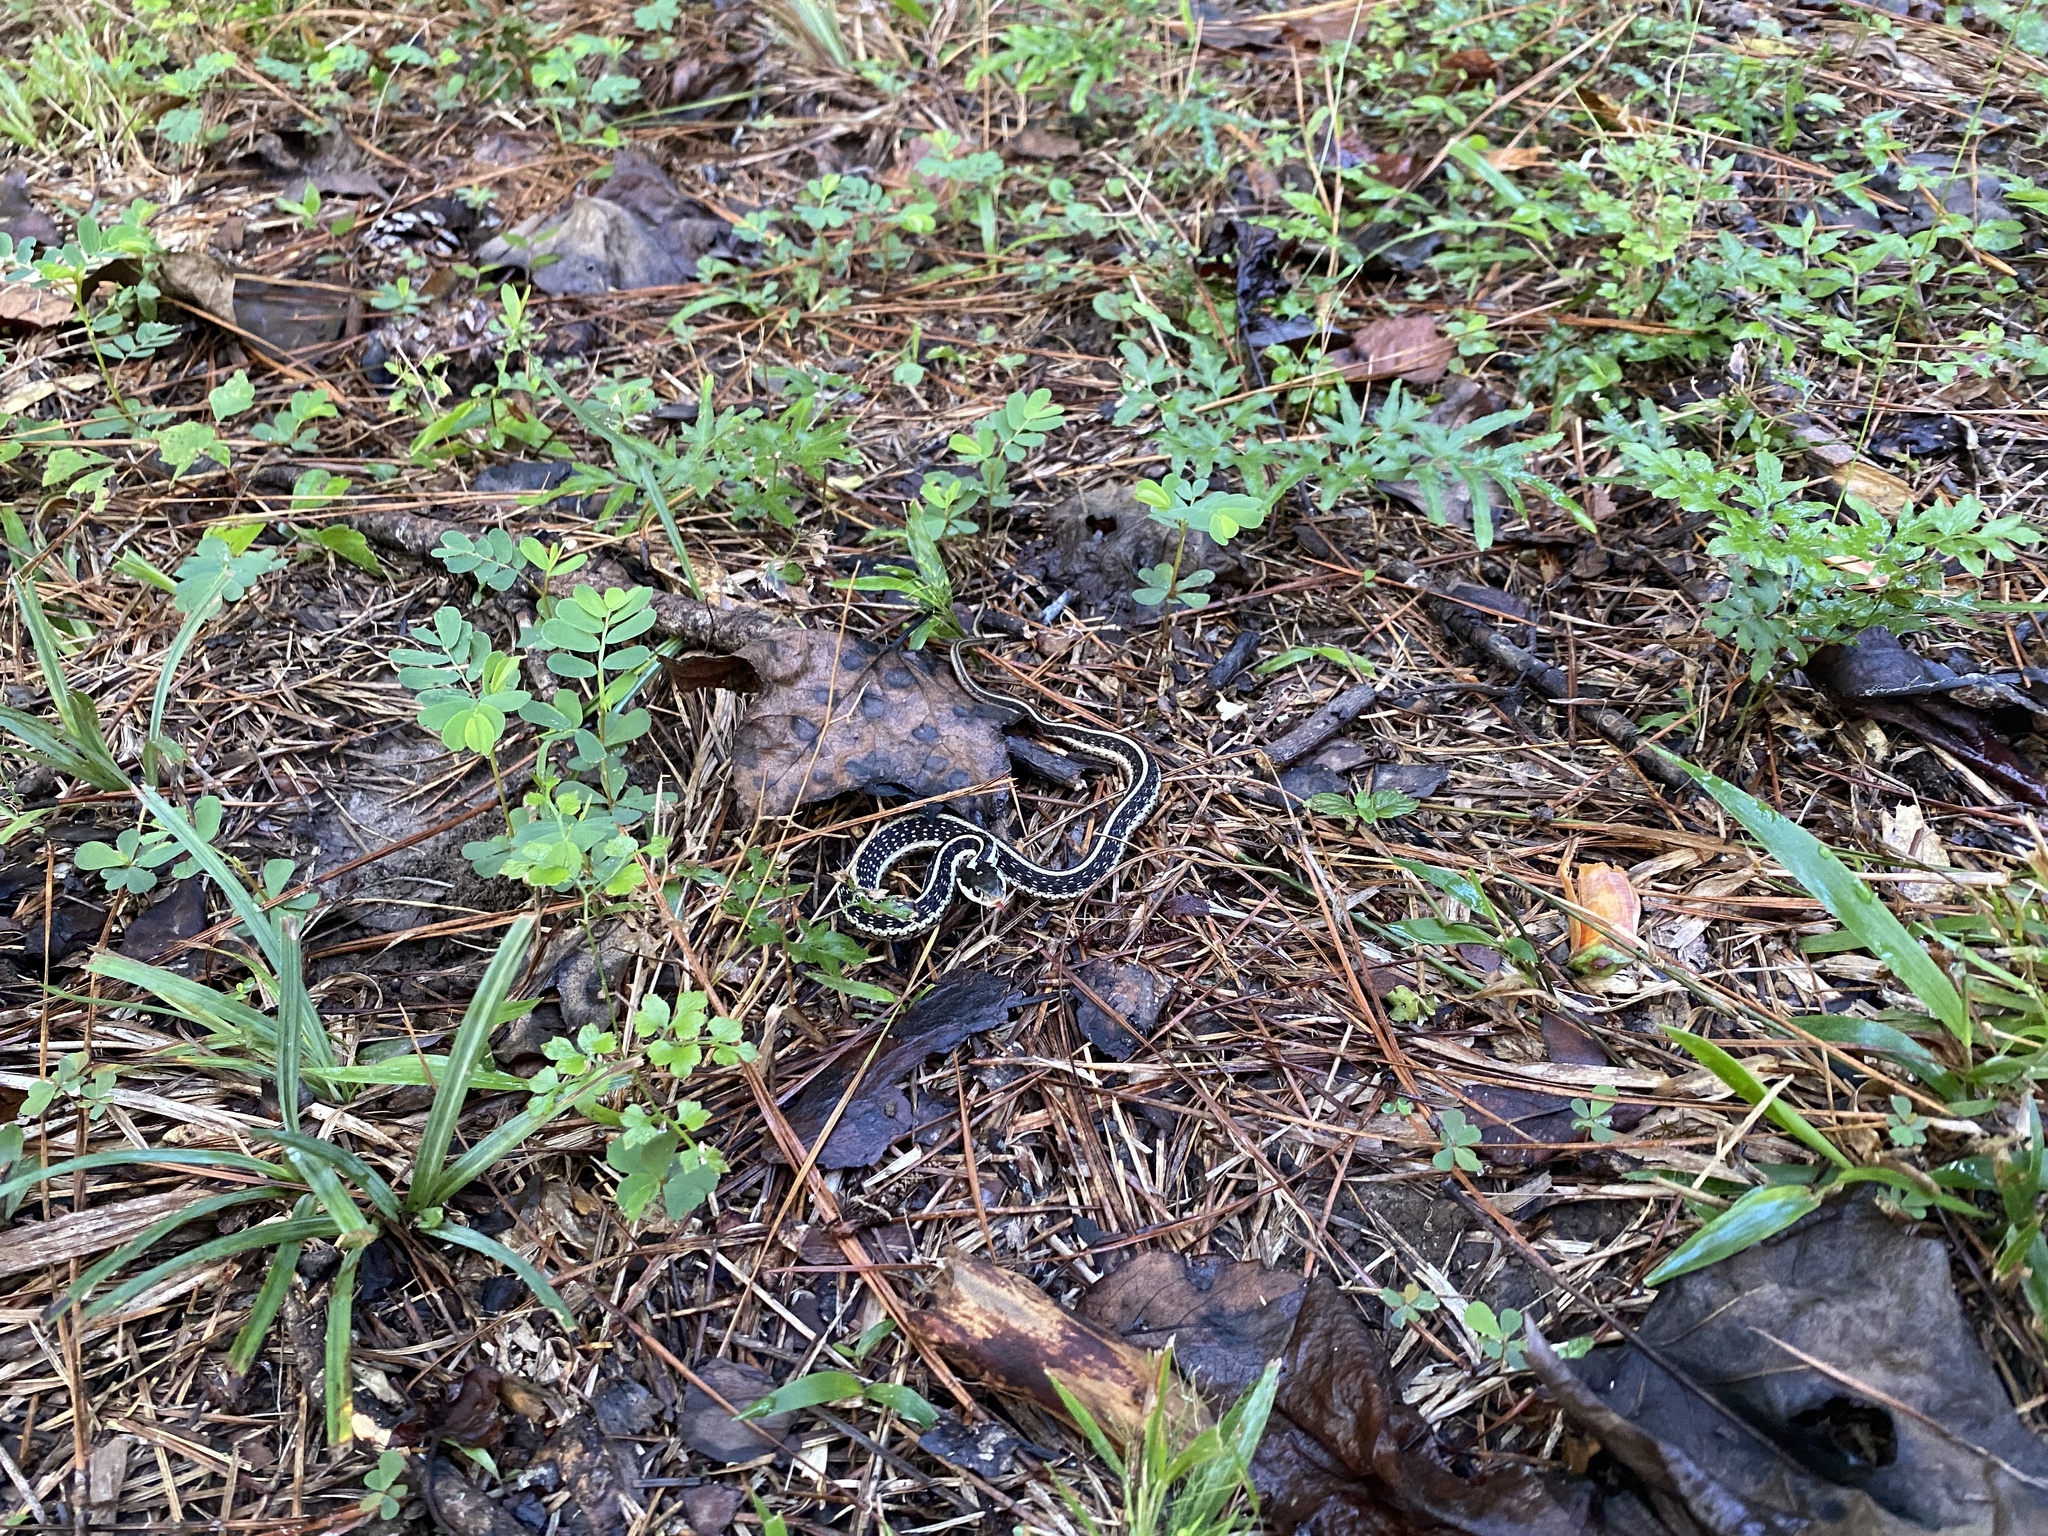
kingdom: Animalia
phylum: Chordata
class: Squamata
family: Colubridae
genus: Thamnophis
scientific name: Thamnophis sirtalis
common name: Common garter snake
